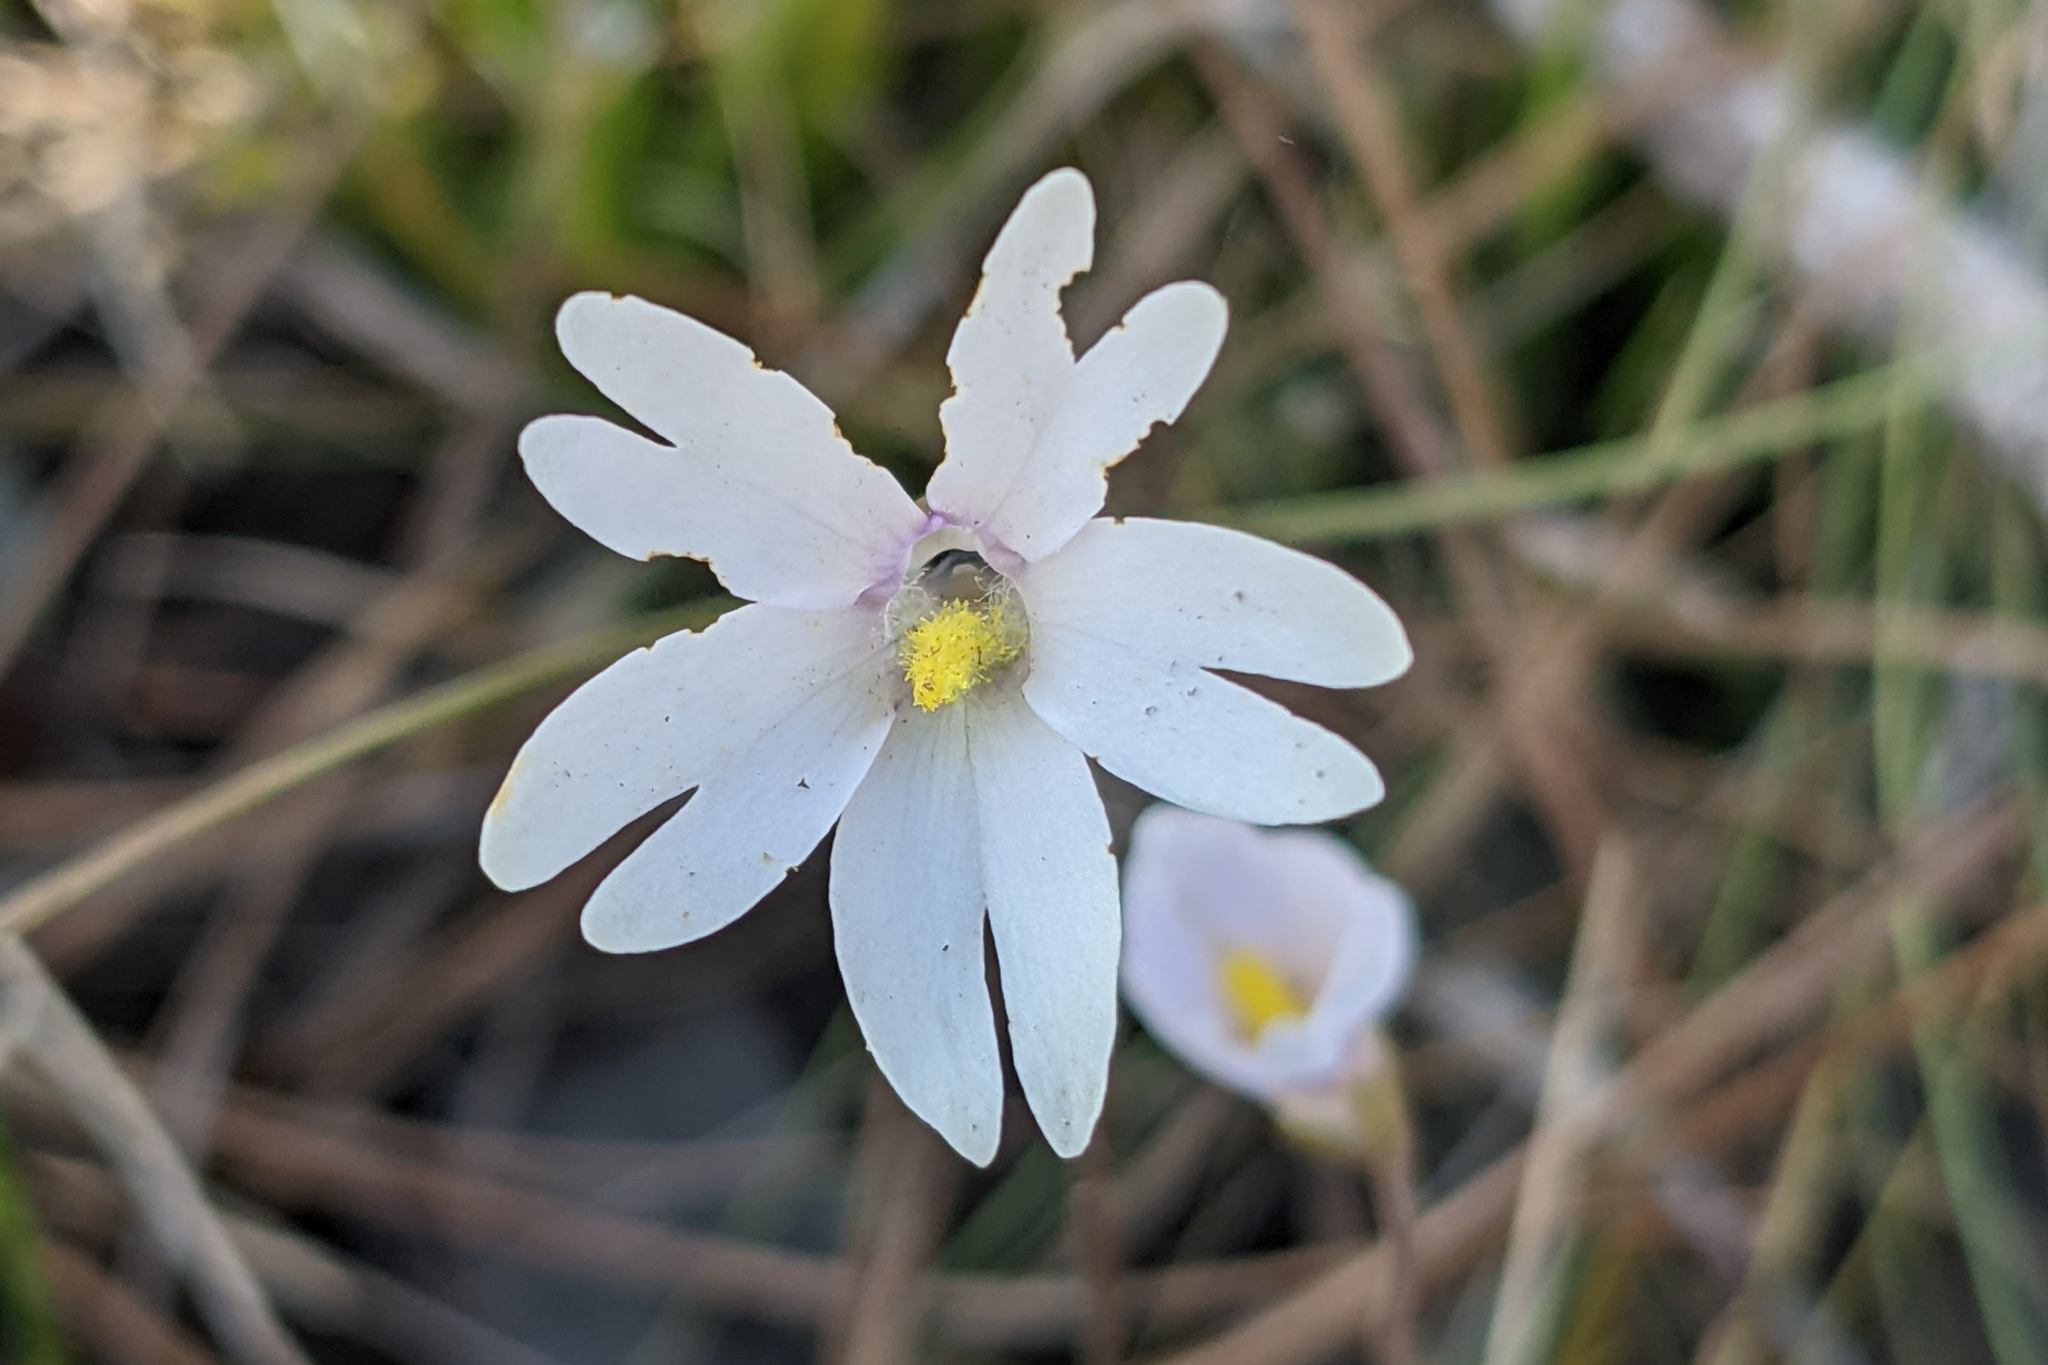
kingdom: Plantae
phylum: Tracheophyta
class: Magnoliopsida
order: Lamiales
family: Lentibulariaceae
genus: Pinguicula
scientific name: Pinguicula planifolia
